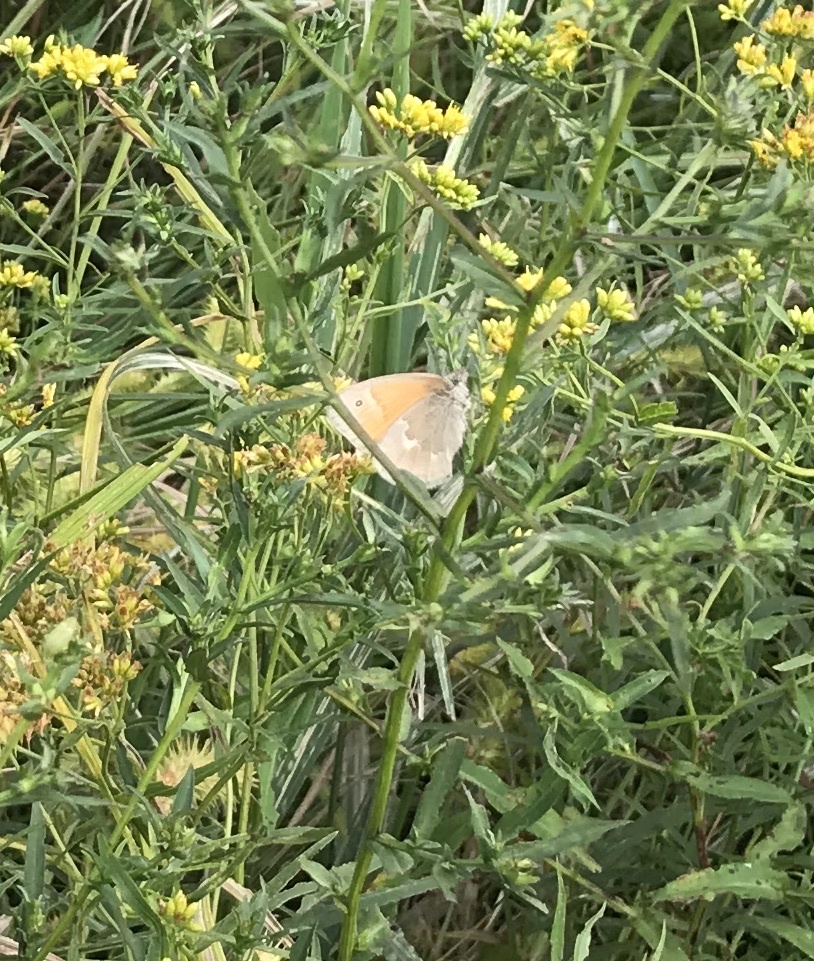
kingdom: Animalia
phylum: Arthropoda
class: Insecta
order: Lepidoptera
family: Nymphalidae
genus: Coenonympha
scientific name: Coenonympha california
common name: Common ringlet
